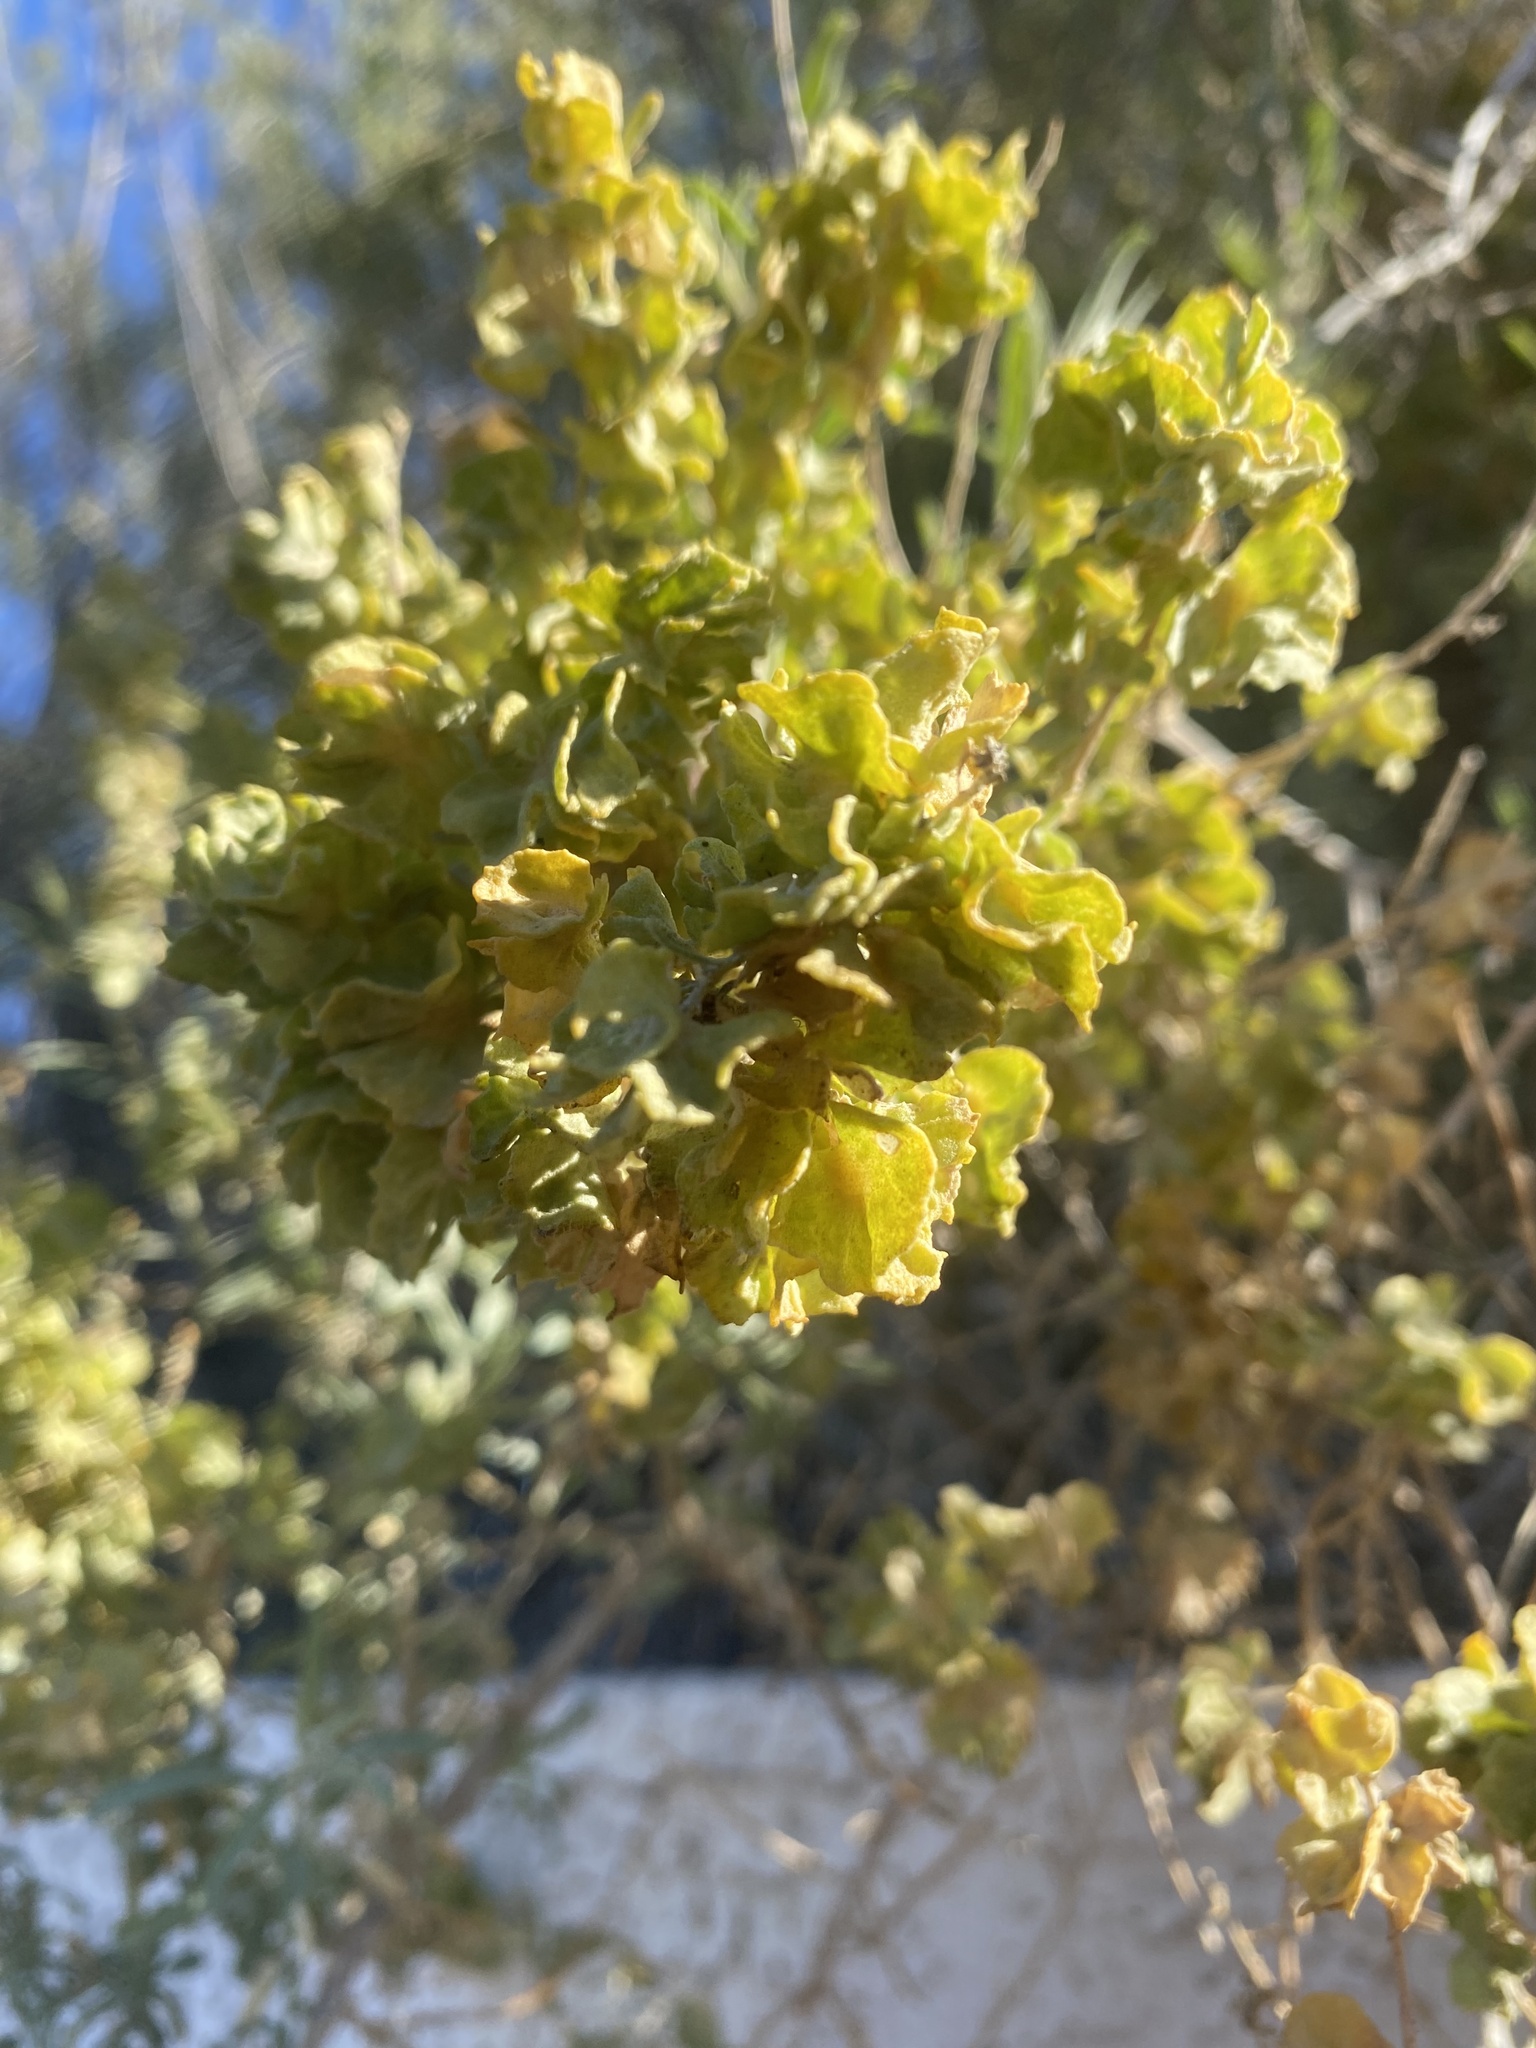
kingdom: Plantae
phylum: Tracheophyta
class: Magnoliopsida
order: Caryophyllales
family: Amaranthaceae
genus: Atriplex
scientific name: Atriplex canescens
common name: Four-wing saltbush
